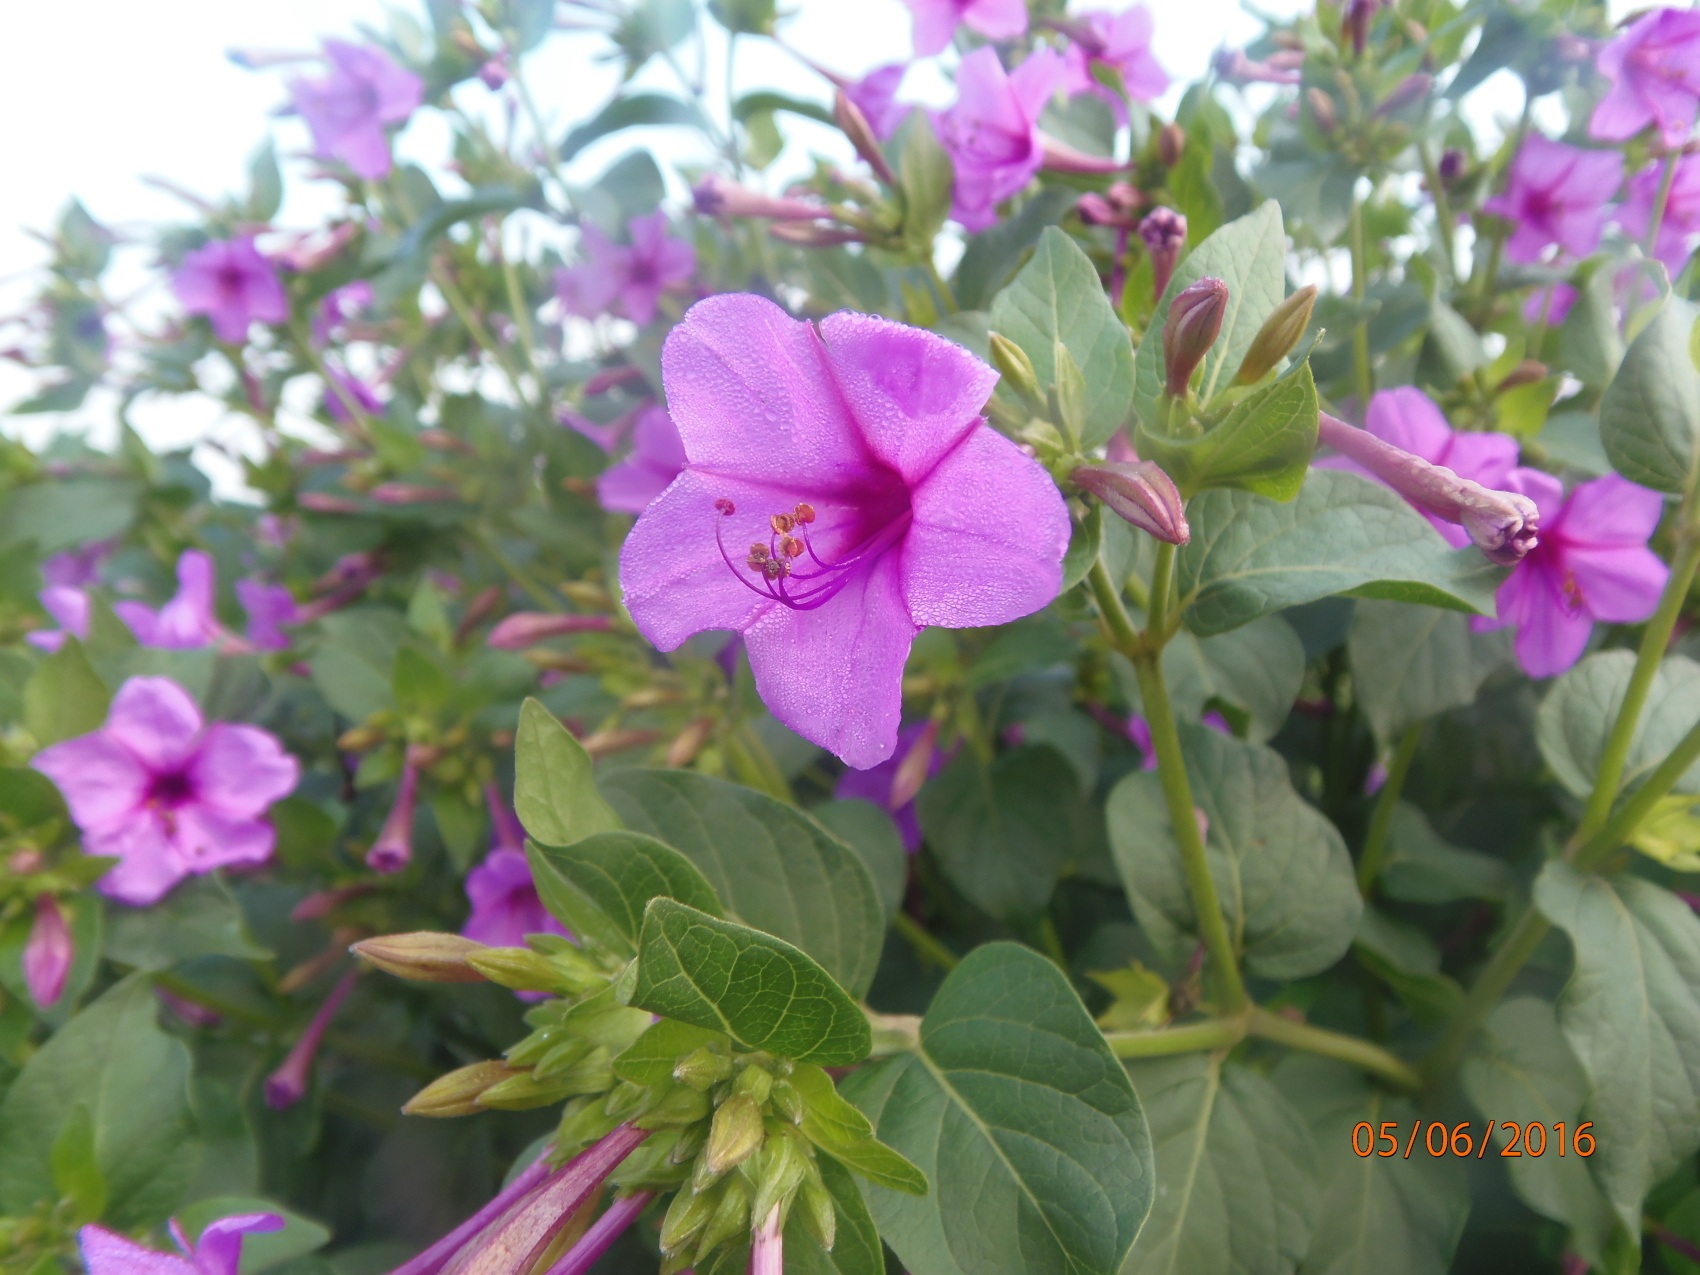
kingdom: Plantae
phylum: Tracheophyta
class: Magnoliopsida
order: Caryophyllales
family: Nyctaginaceae
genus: Mirabilis
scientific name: Mirabilis jalapa
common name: Marvel-of-peru
